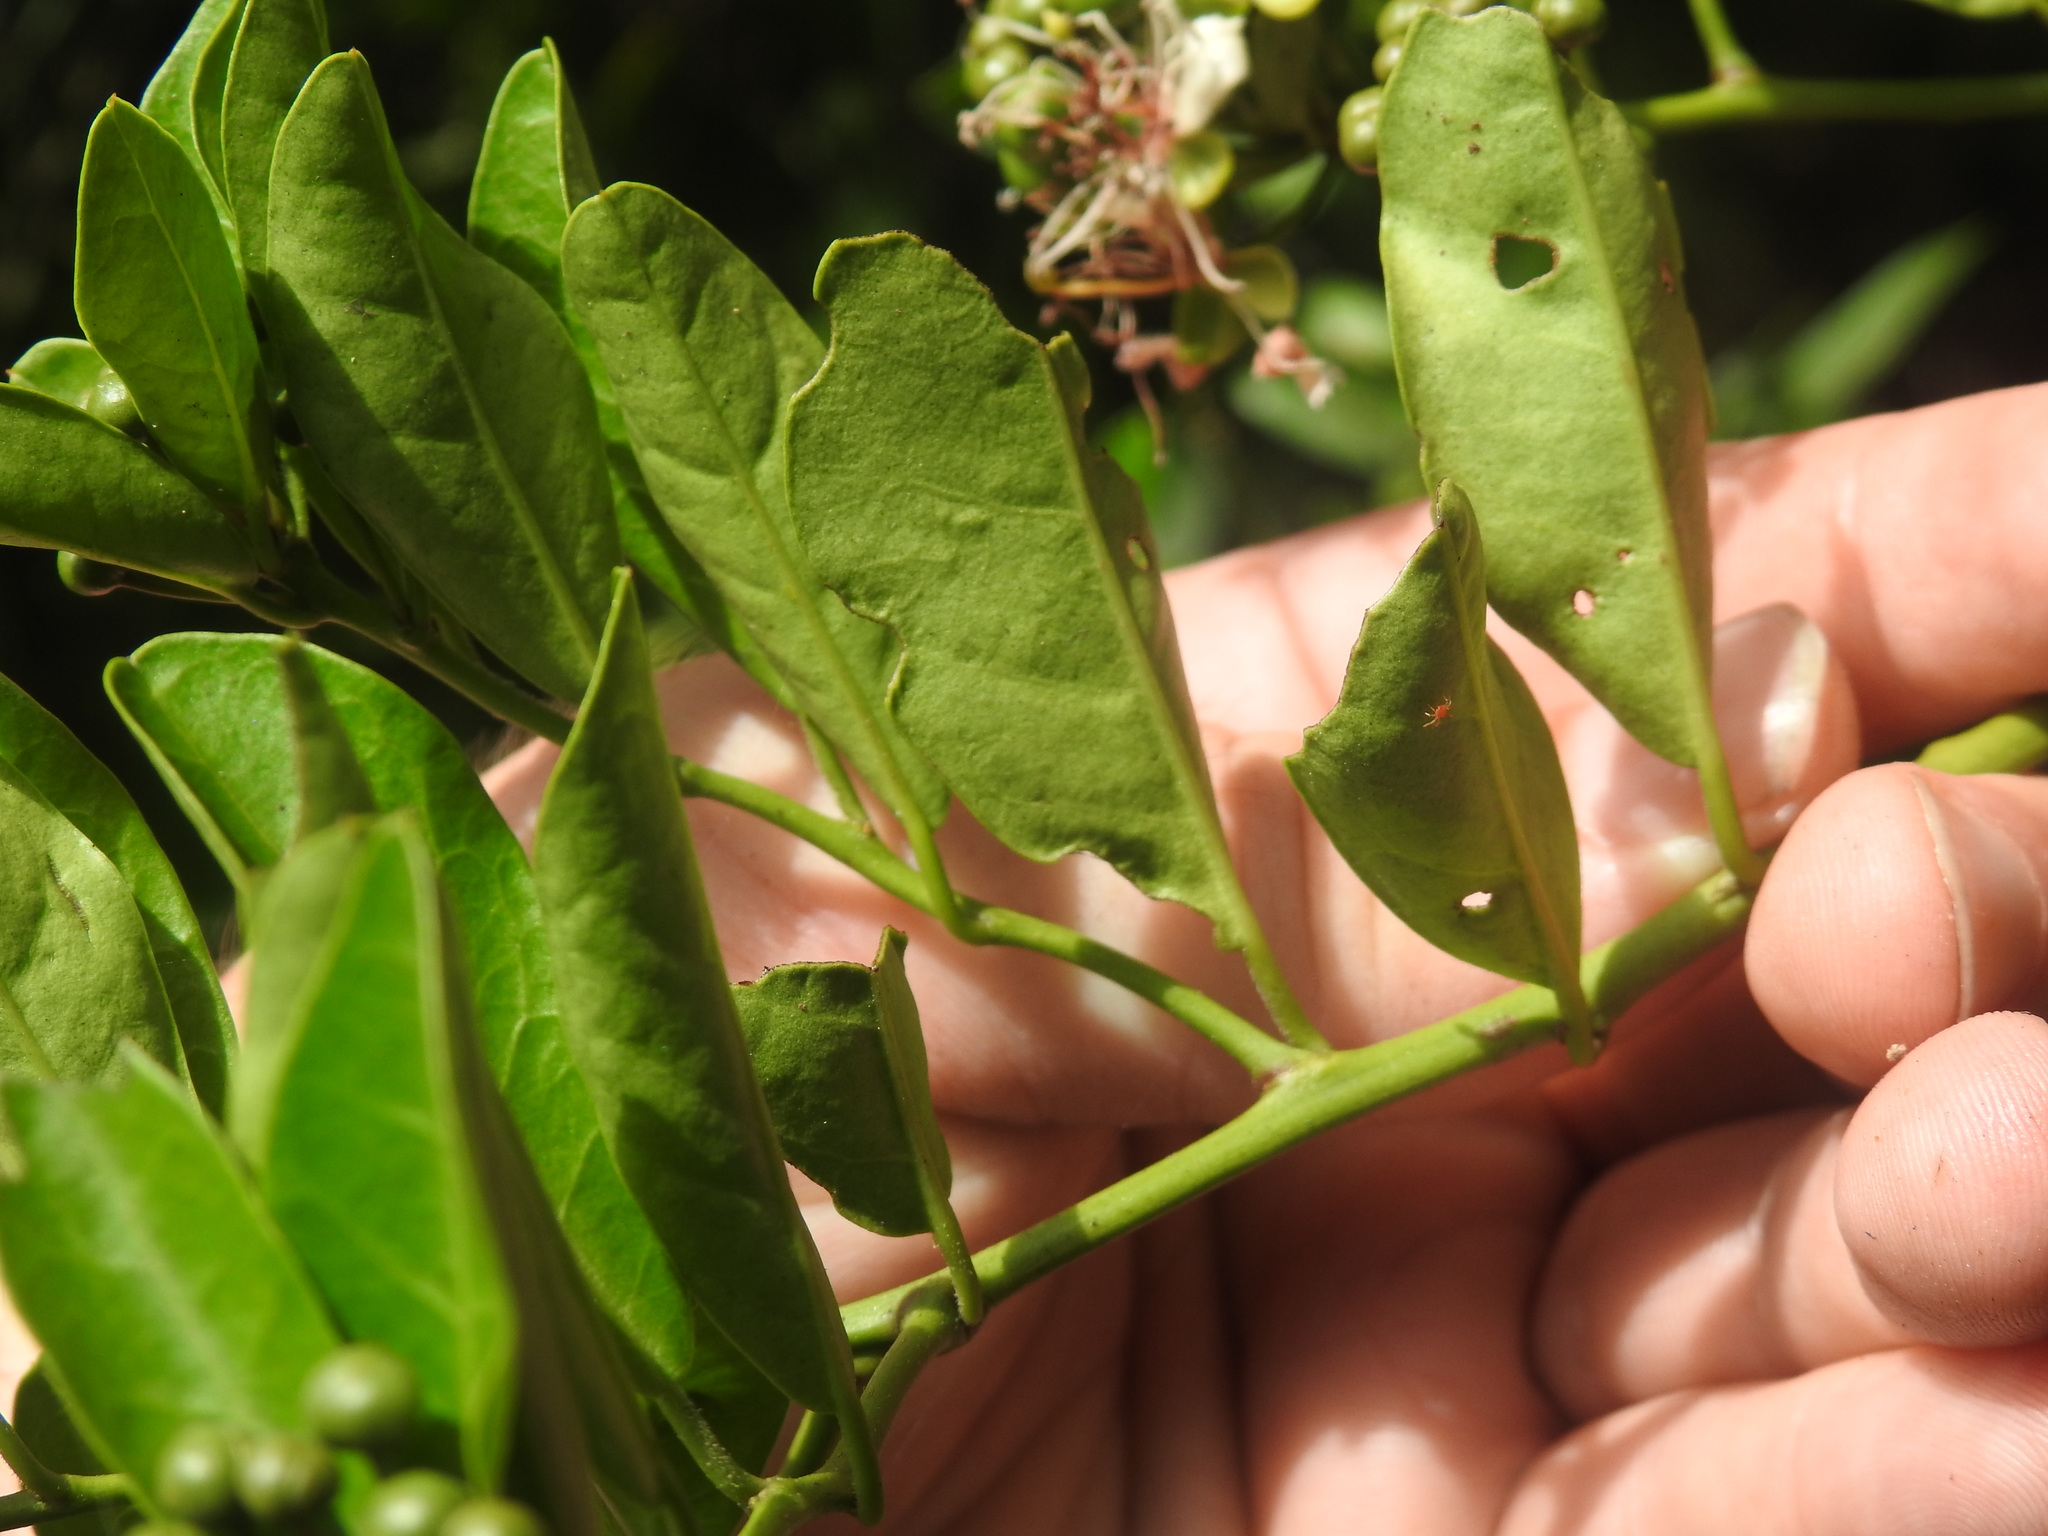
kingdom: Plantae
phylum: Tracheophyta
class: Magnoliopsida
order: Brassicales
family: Capparaceae
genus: Capparis
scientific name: Capparis sepiaria
